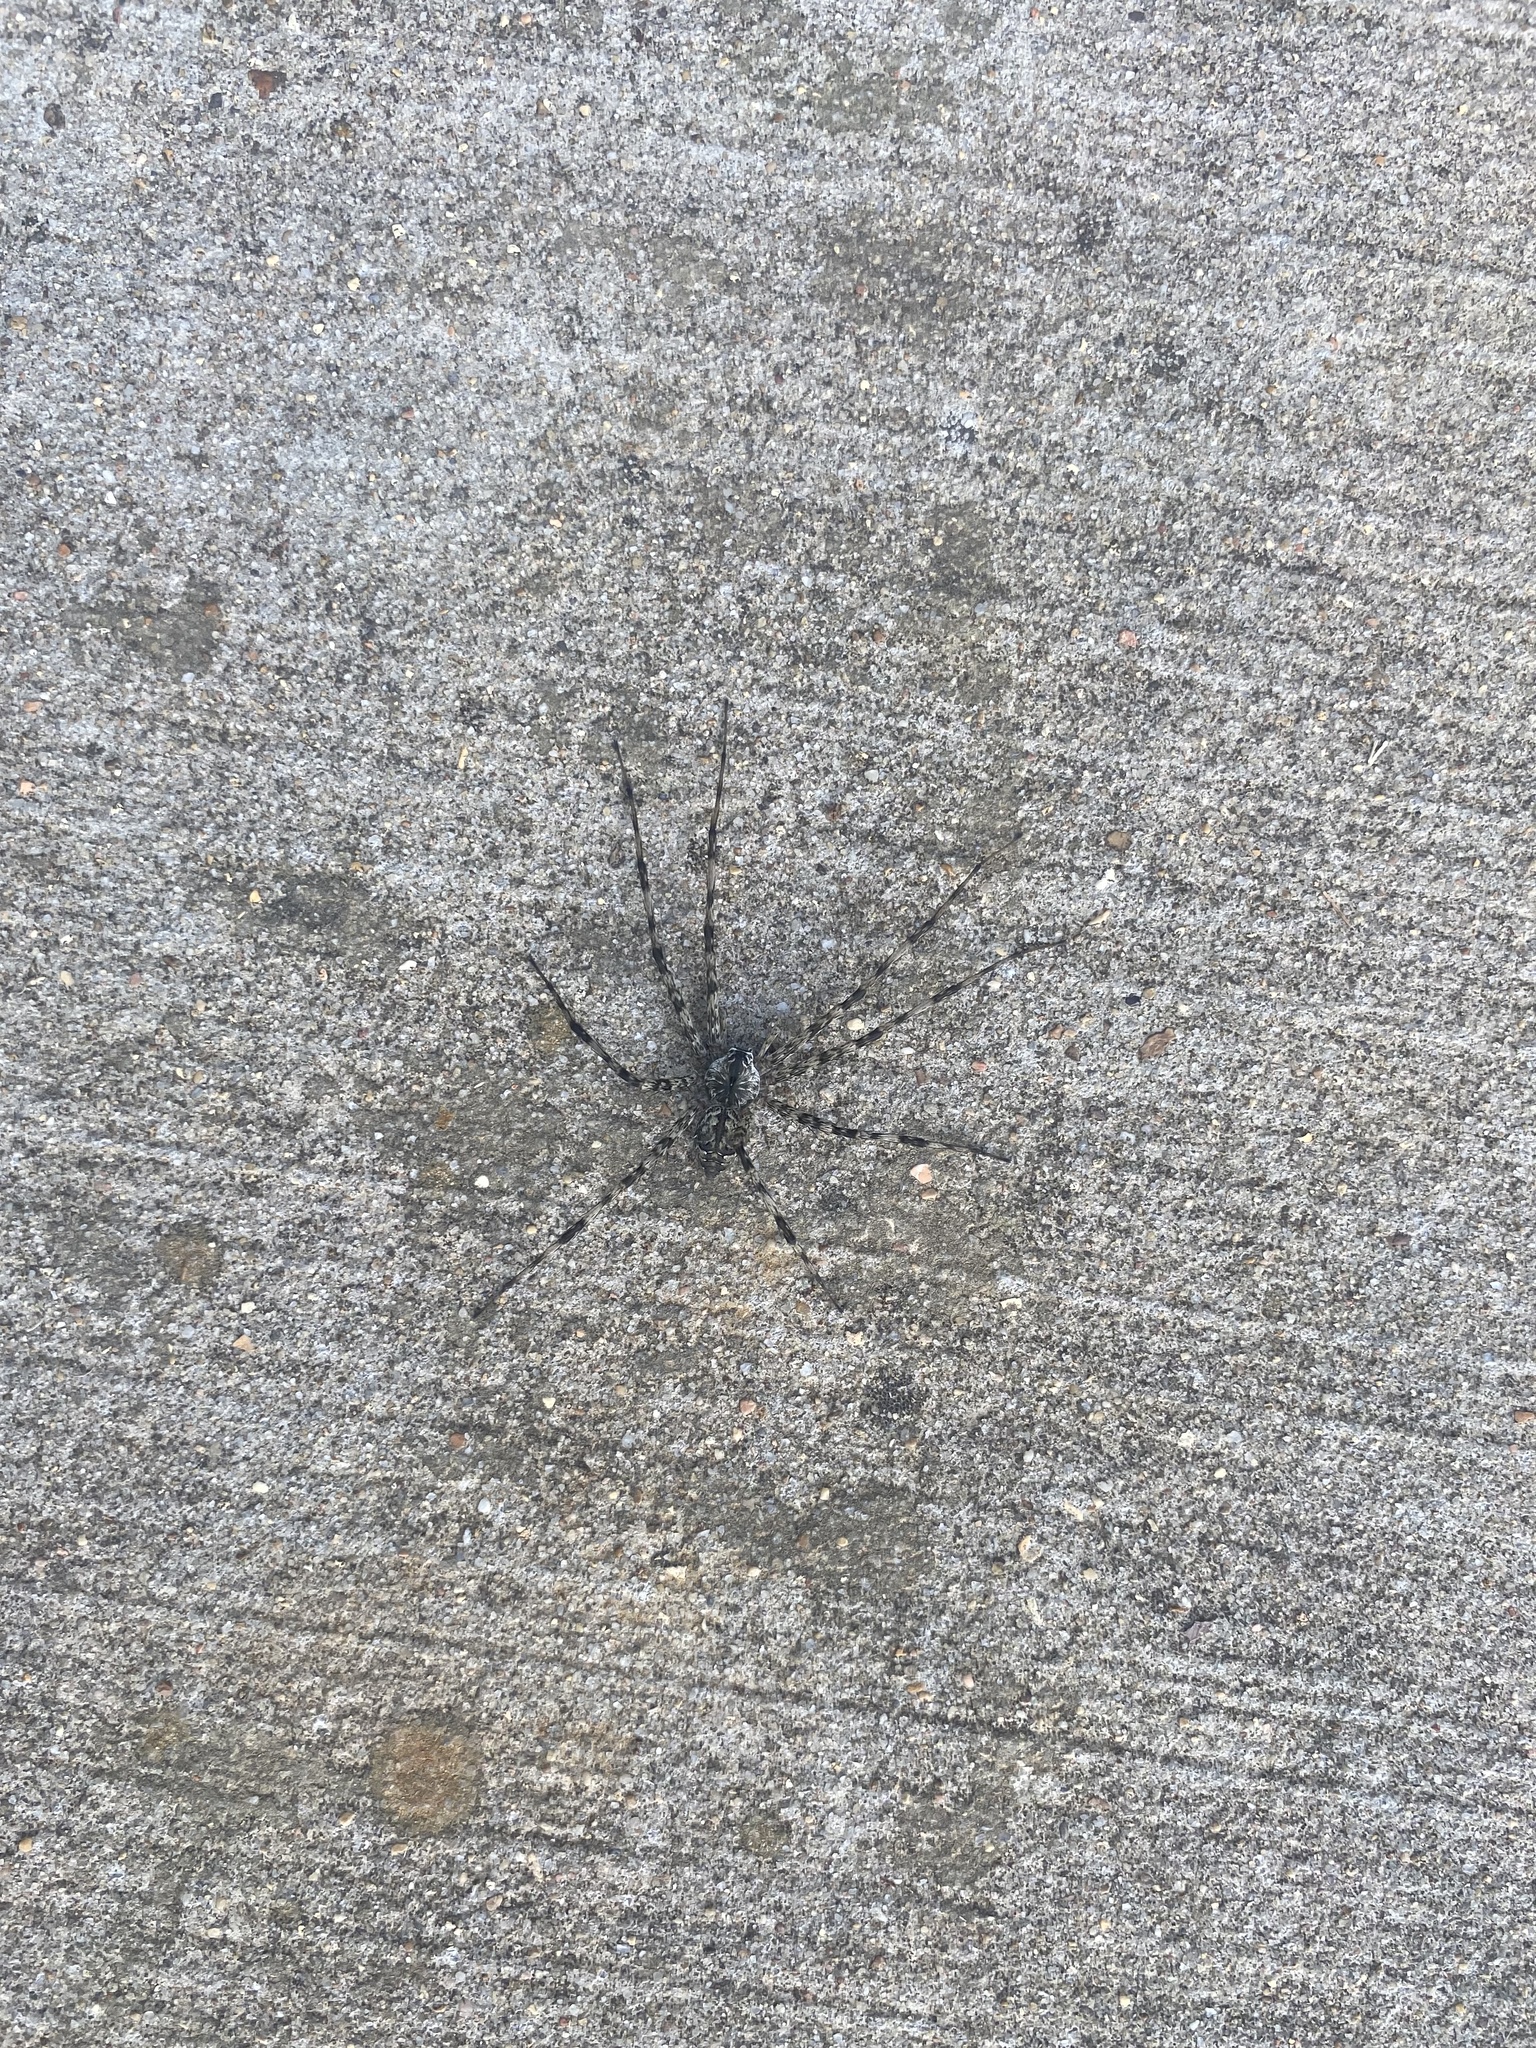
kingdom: Animalia
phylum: Arthropoda
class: Arachnida
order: Araneae
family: Pisauridae
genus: Dolomedes
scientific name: Dolomedes albineus
